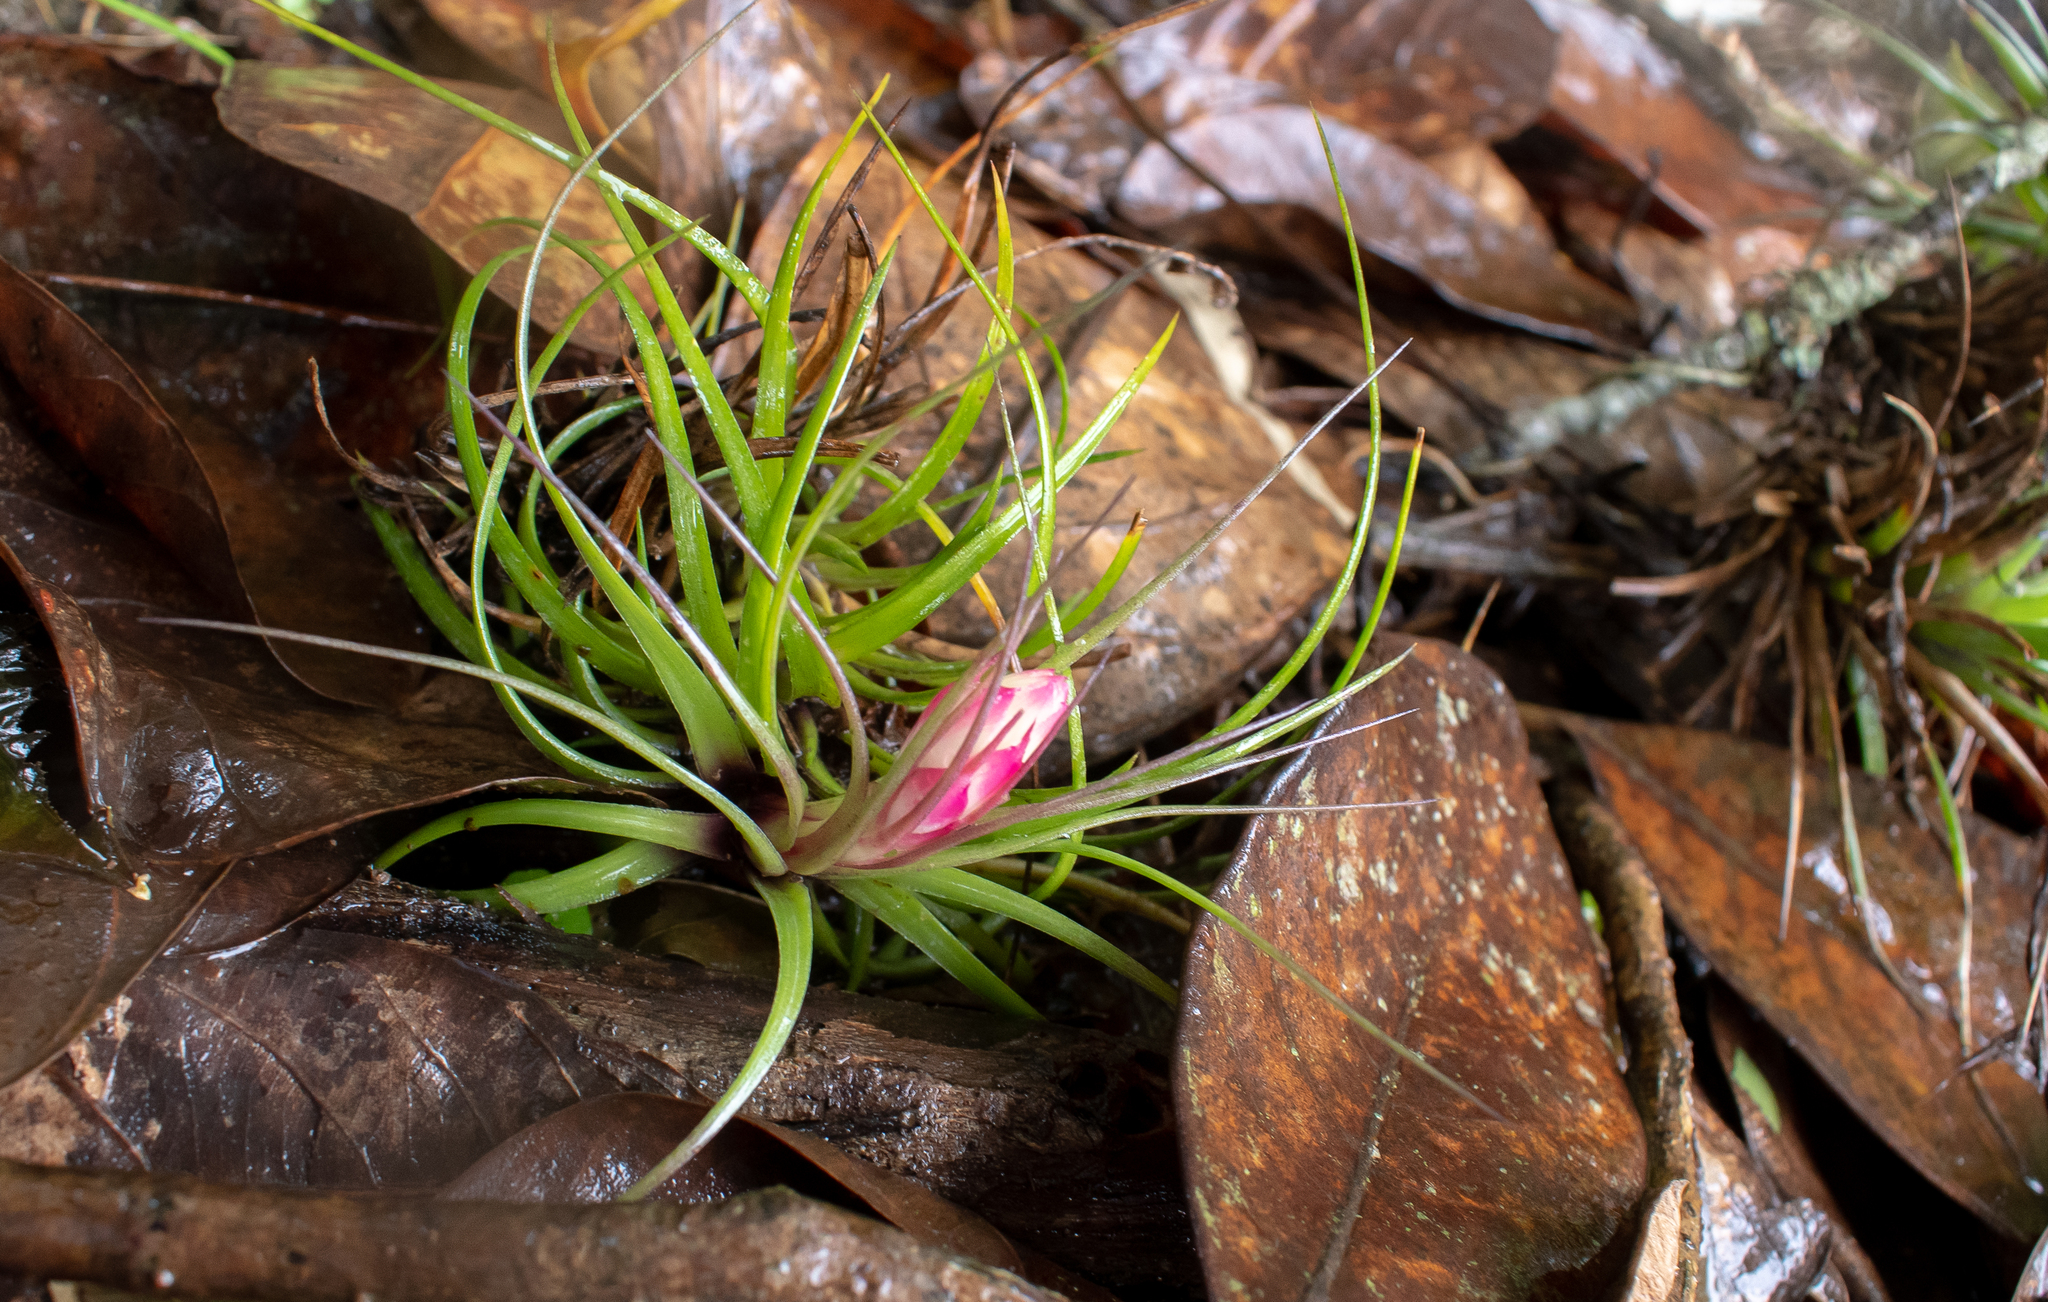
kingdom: Plantae
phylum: Tracheophyta
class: Liliopsida
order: Poales
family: Bromeliaceae
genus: Tillandsia
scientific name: Tillandsia stricta
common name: Airplant
